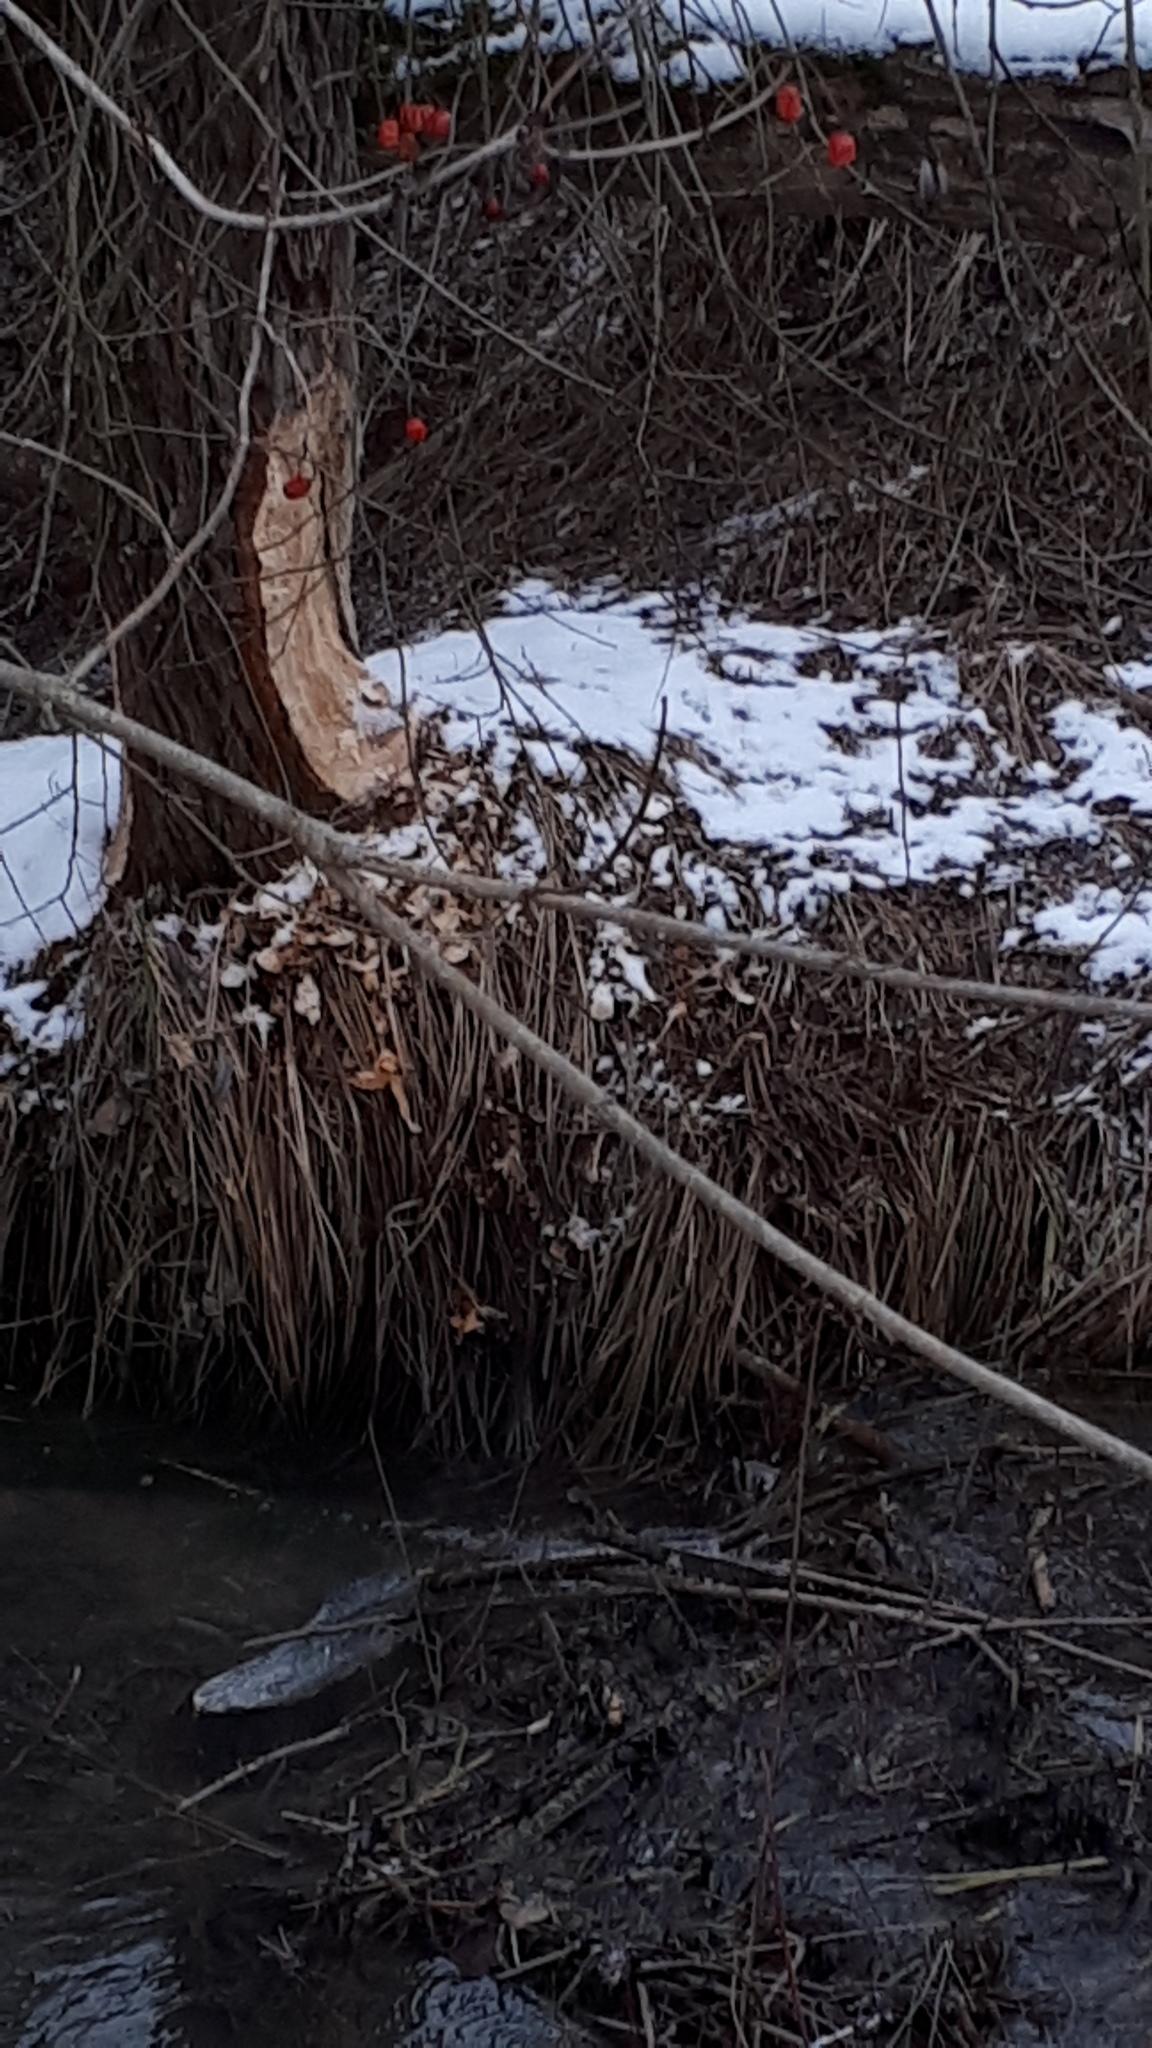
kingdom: Animalia
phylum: Chordata
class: Mammalia
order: Rodentia
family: Castoridae
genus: Castor
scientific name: Castor fiber
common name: Eurasian beaver
